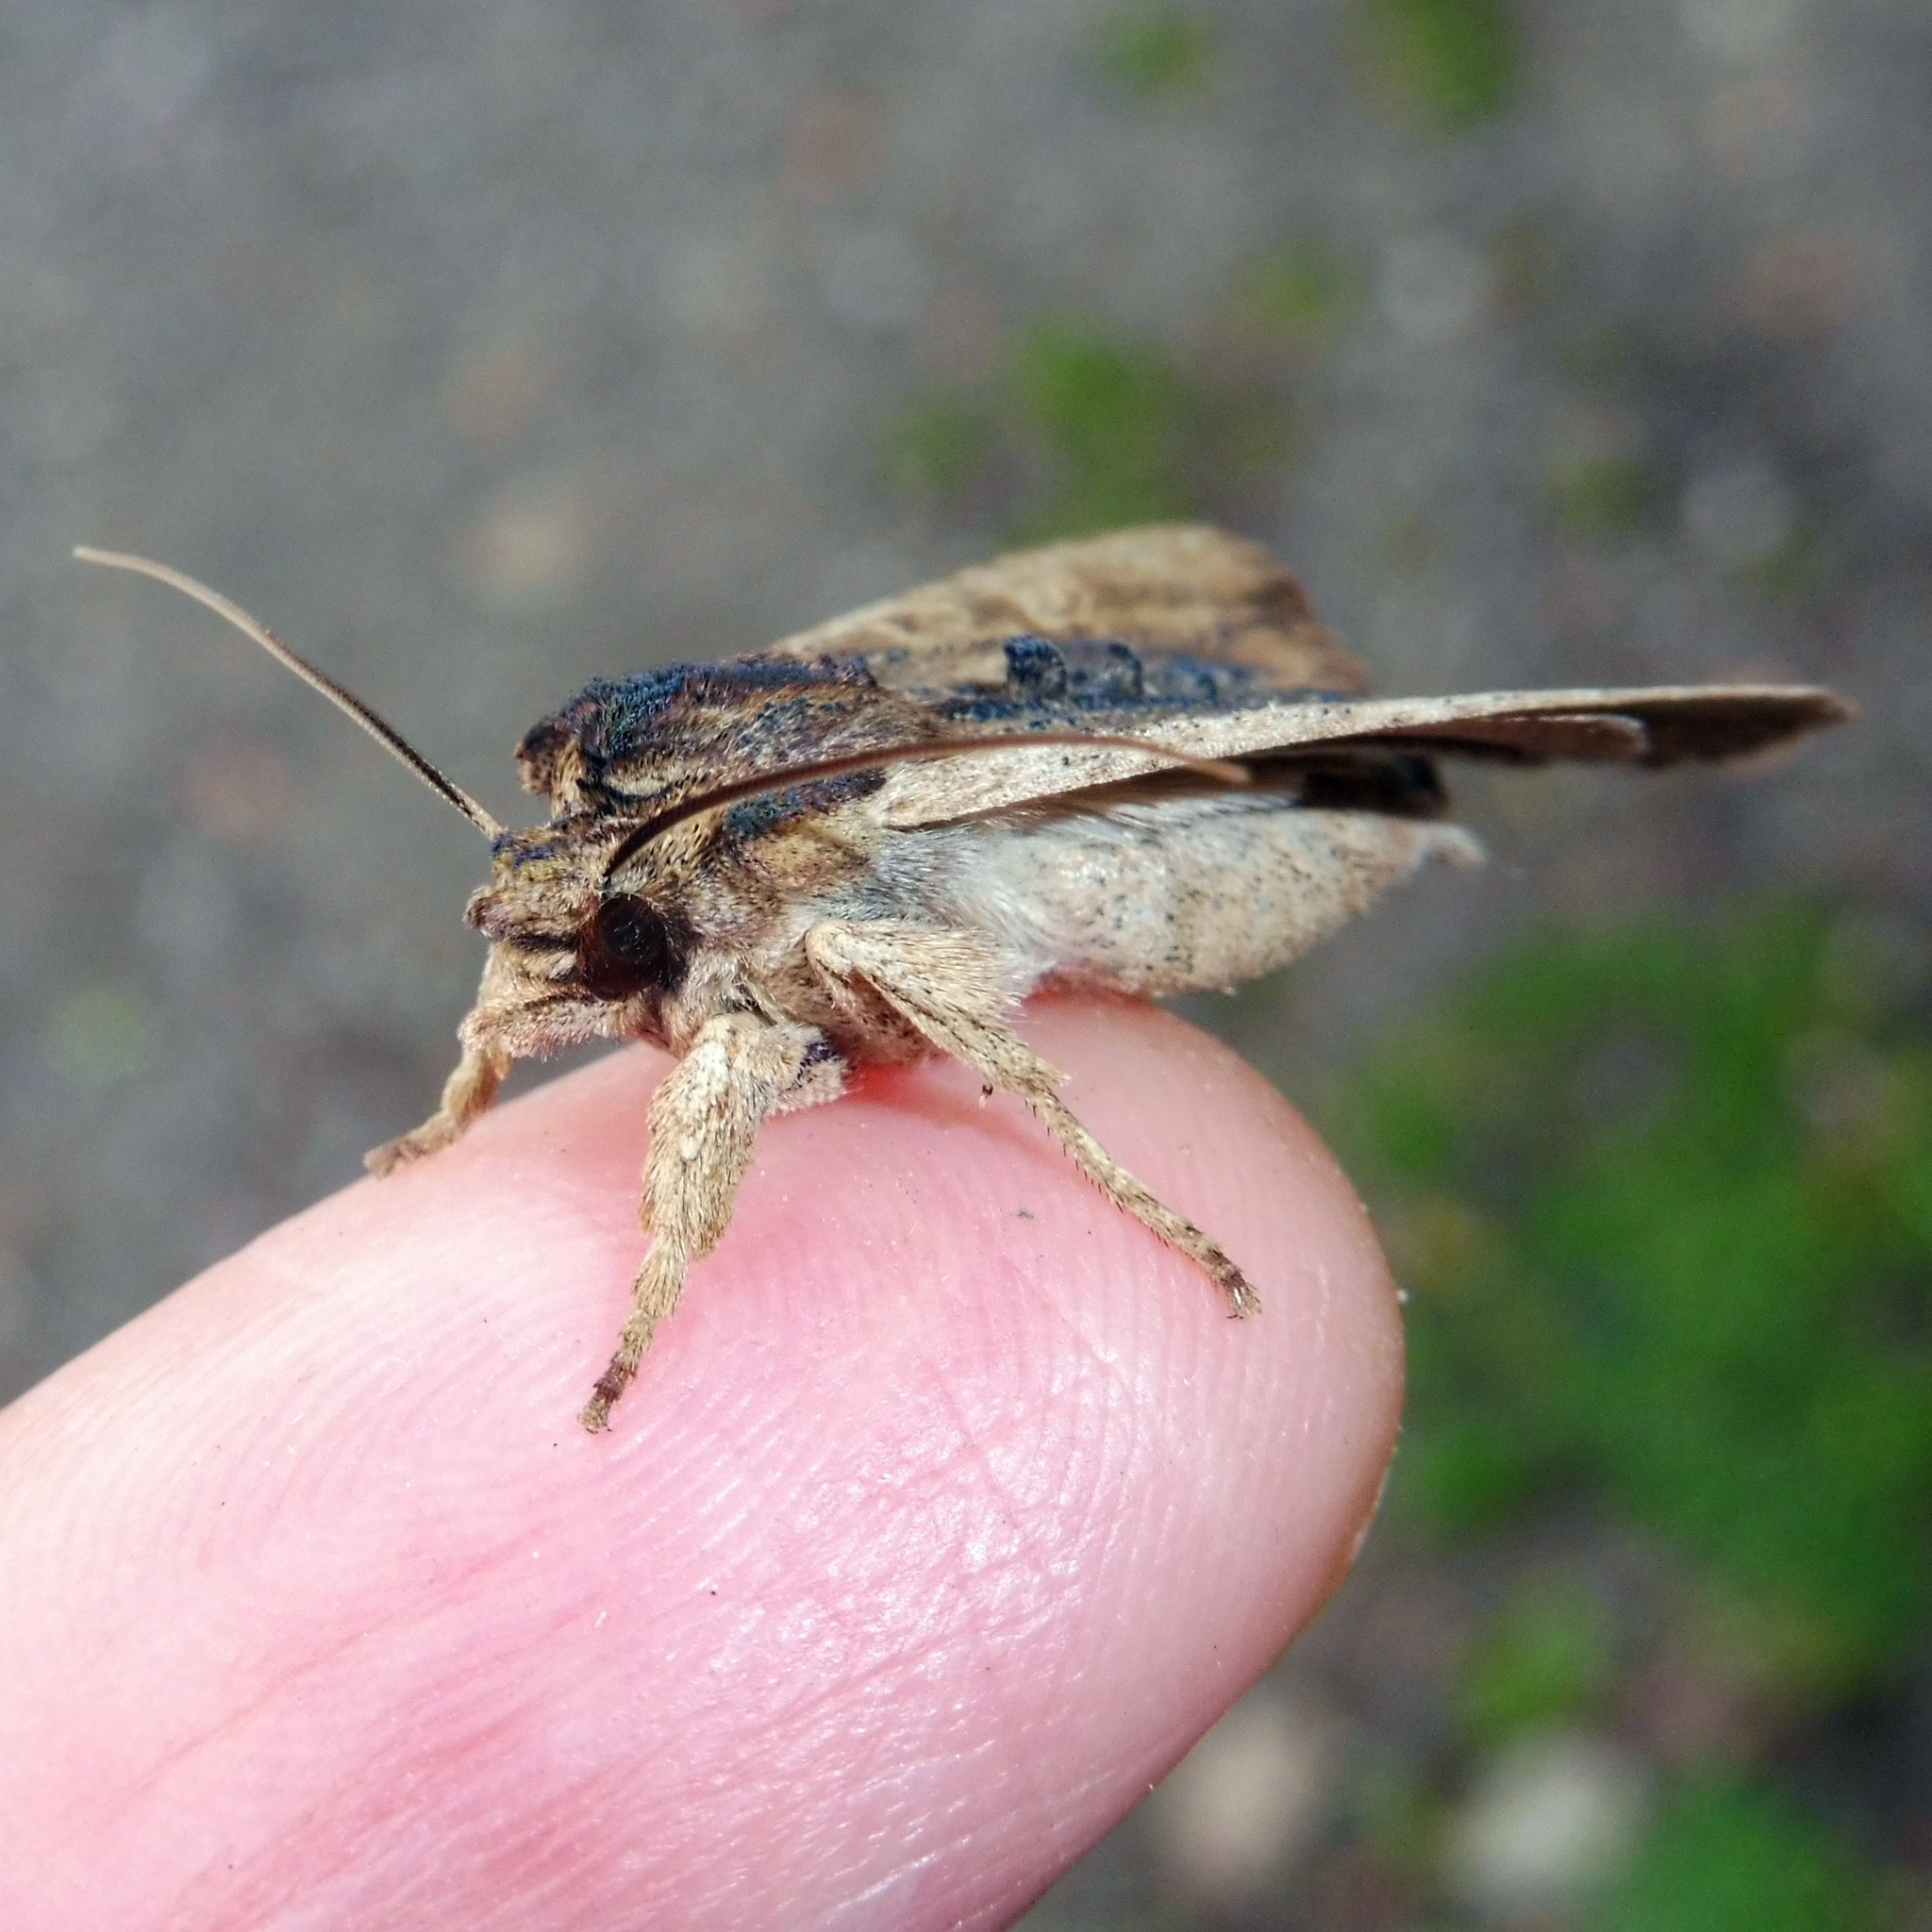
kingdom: Animalia
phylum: Arthropoda
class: Insecta
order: Lepidoptera
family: Noctuidae
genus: Lithophane
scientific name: Lithophane semibrunnea
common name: Tawny pinion
